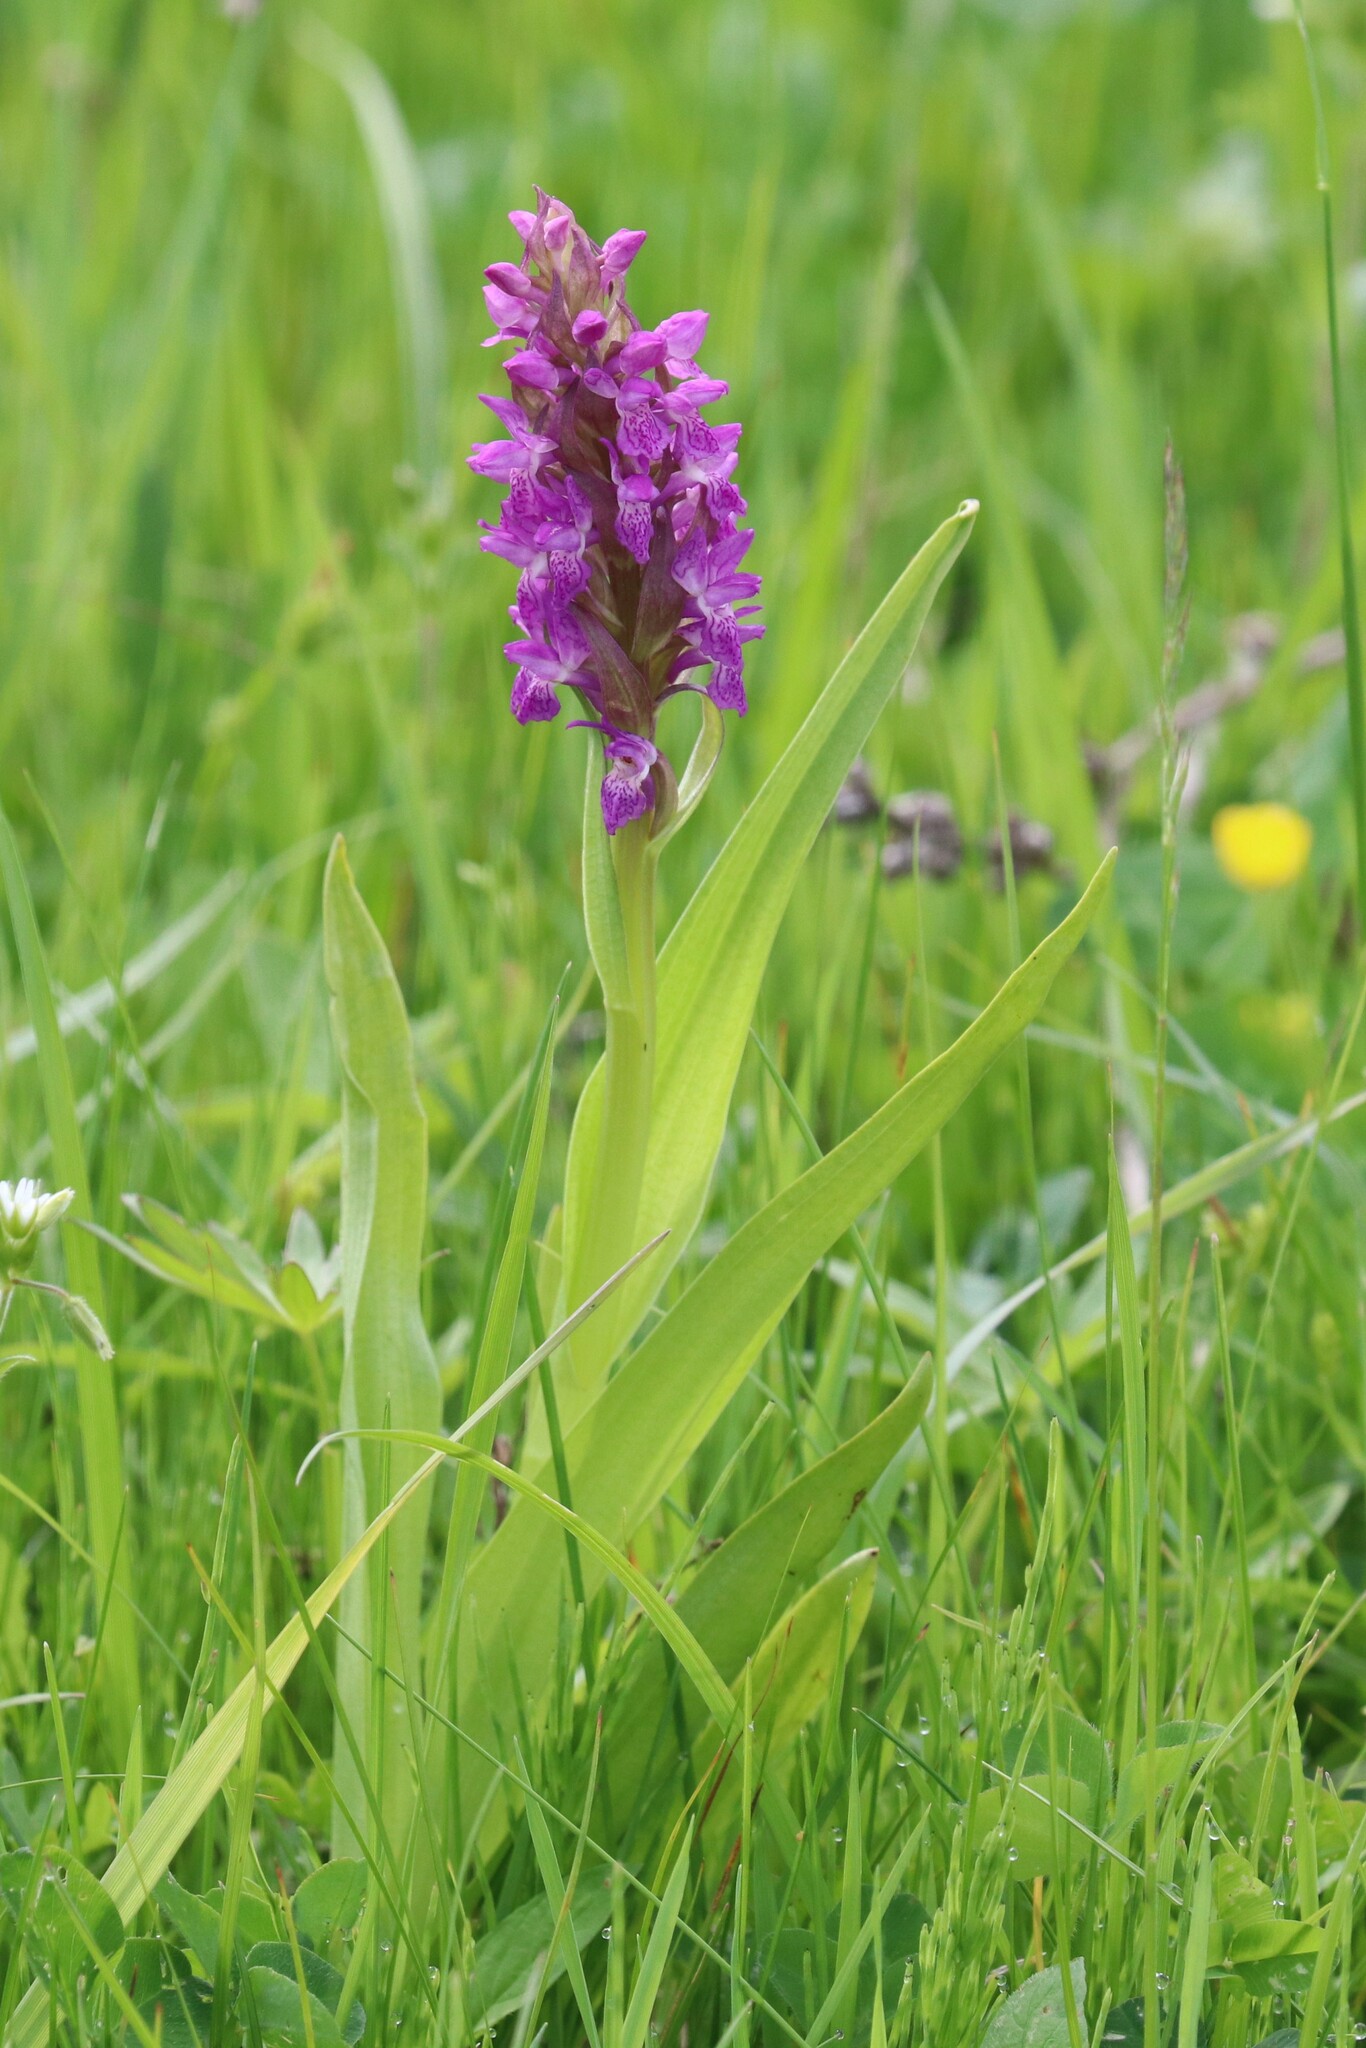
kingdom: Plantae
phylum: Tracheophyta
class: Liliopsida
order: Asparagales
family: Orchidaceae
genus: Dactylorhiza
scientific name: Dactylorhiza incarnata
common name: Early marsh-orchid
